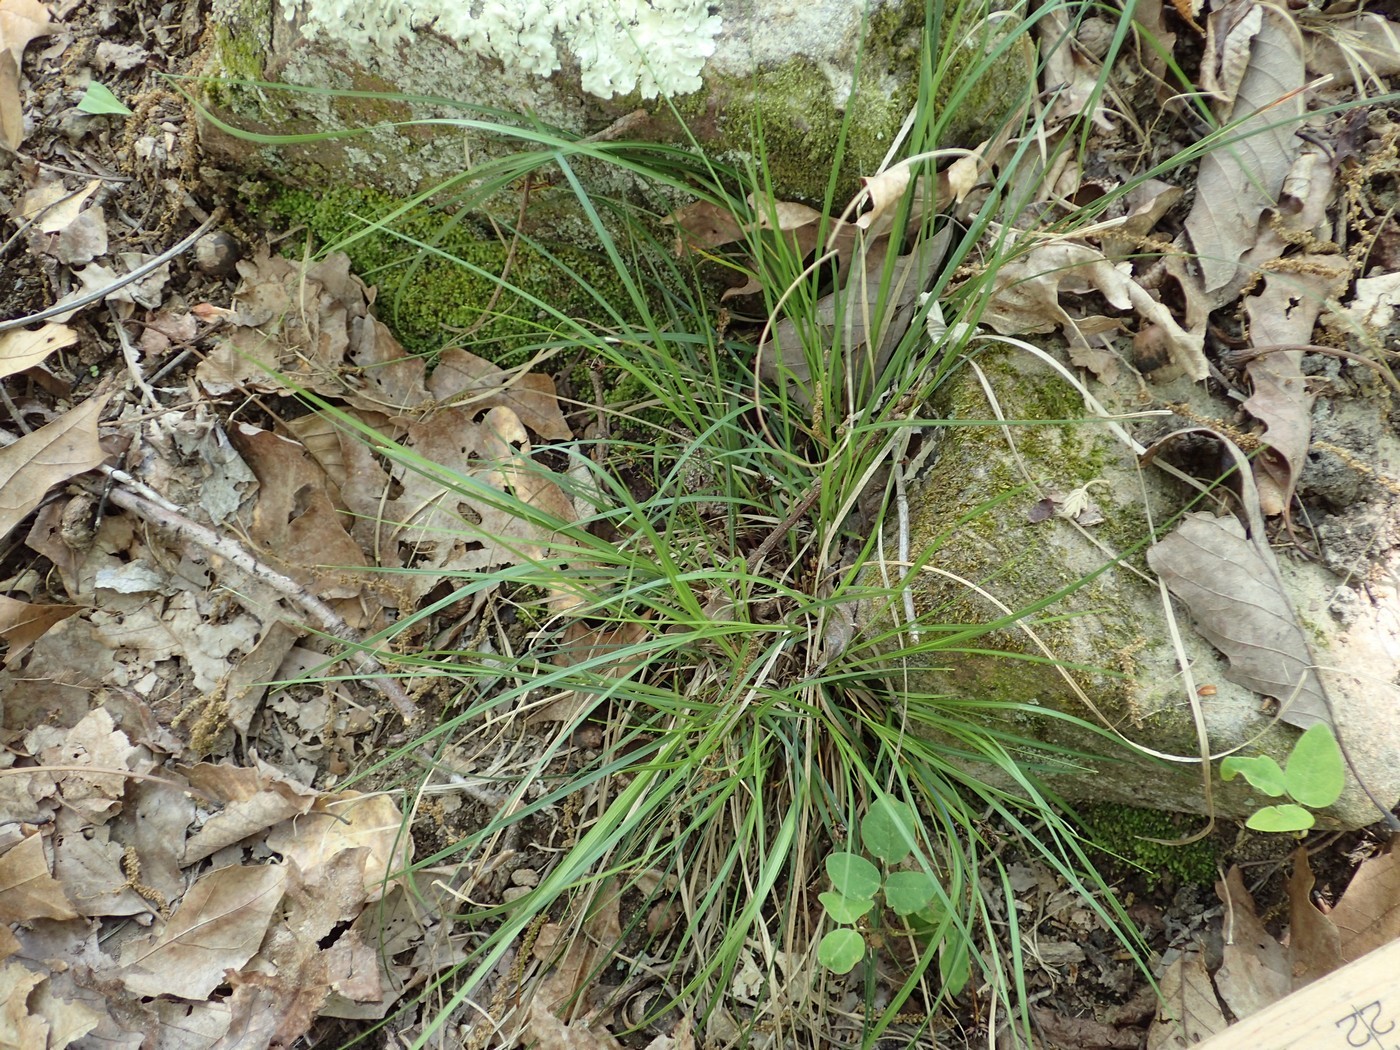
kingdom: Plantae
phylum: Tracheophyta
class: Liliopsida
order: Poales
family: Cyperaceae
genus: Carex
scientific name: Carex nigromarginata
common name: Black-edged sedge
